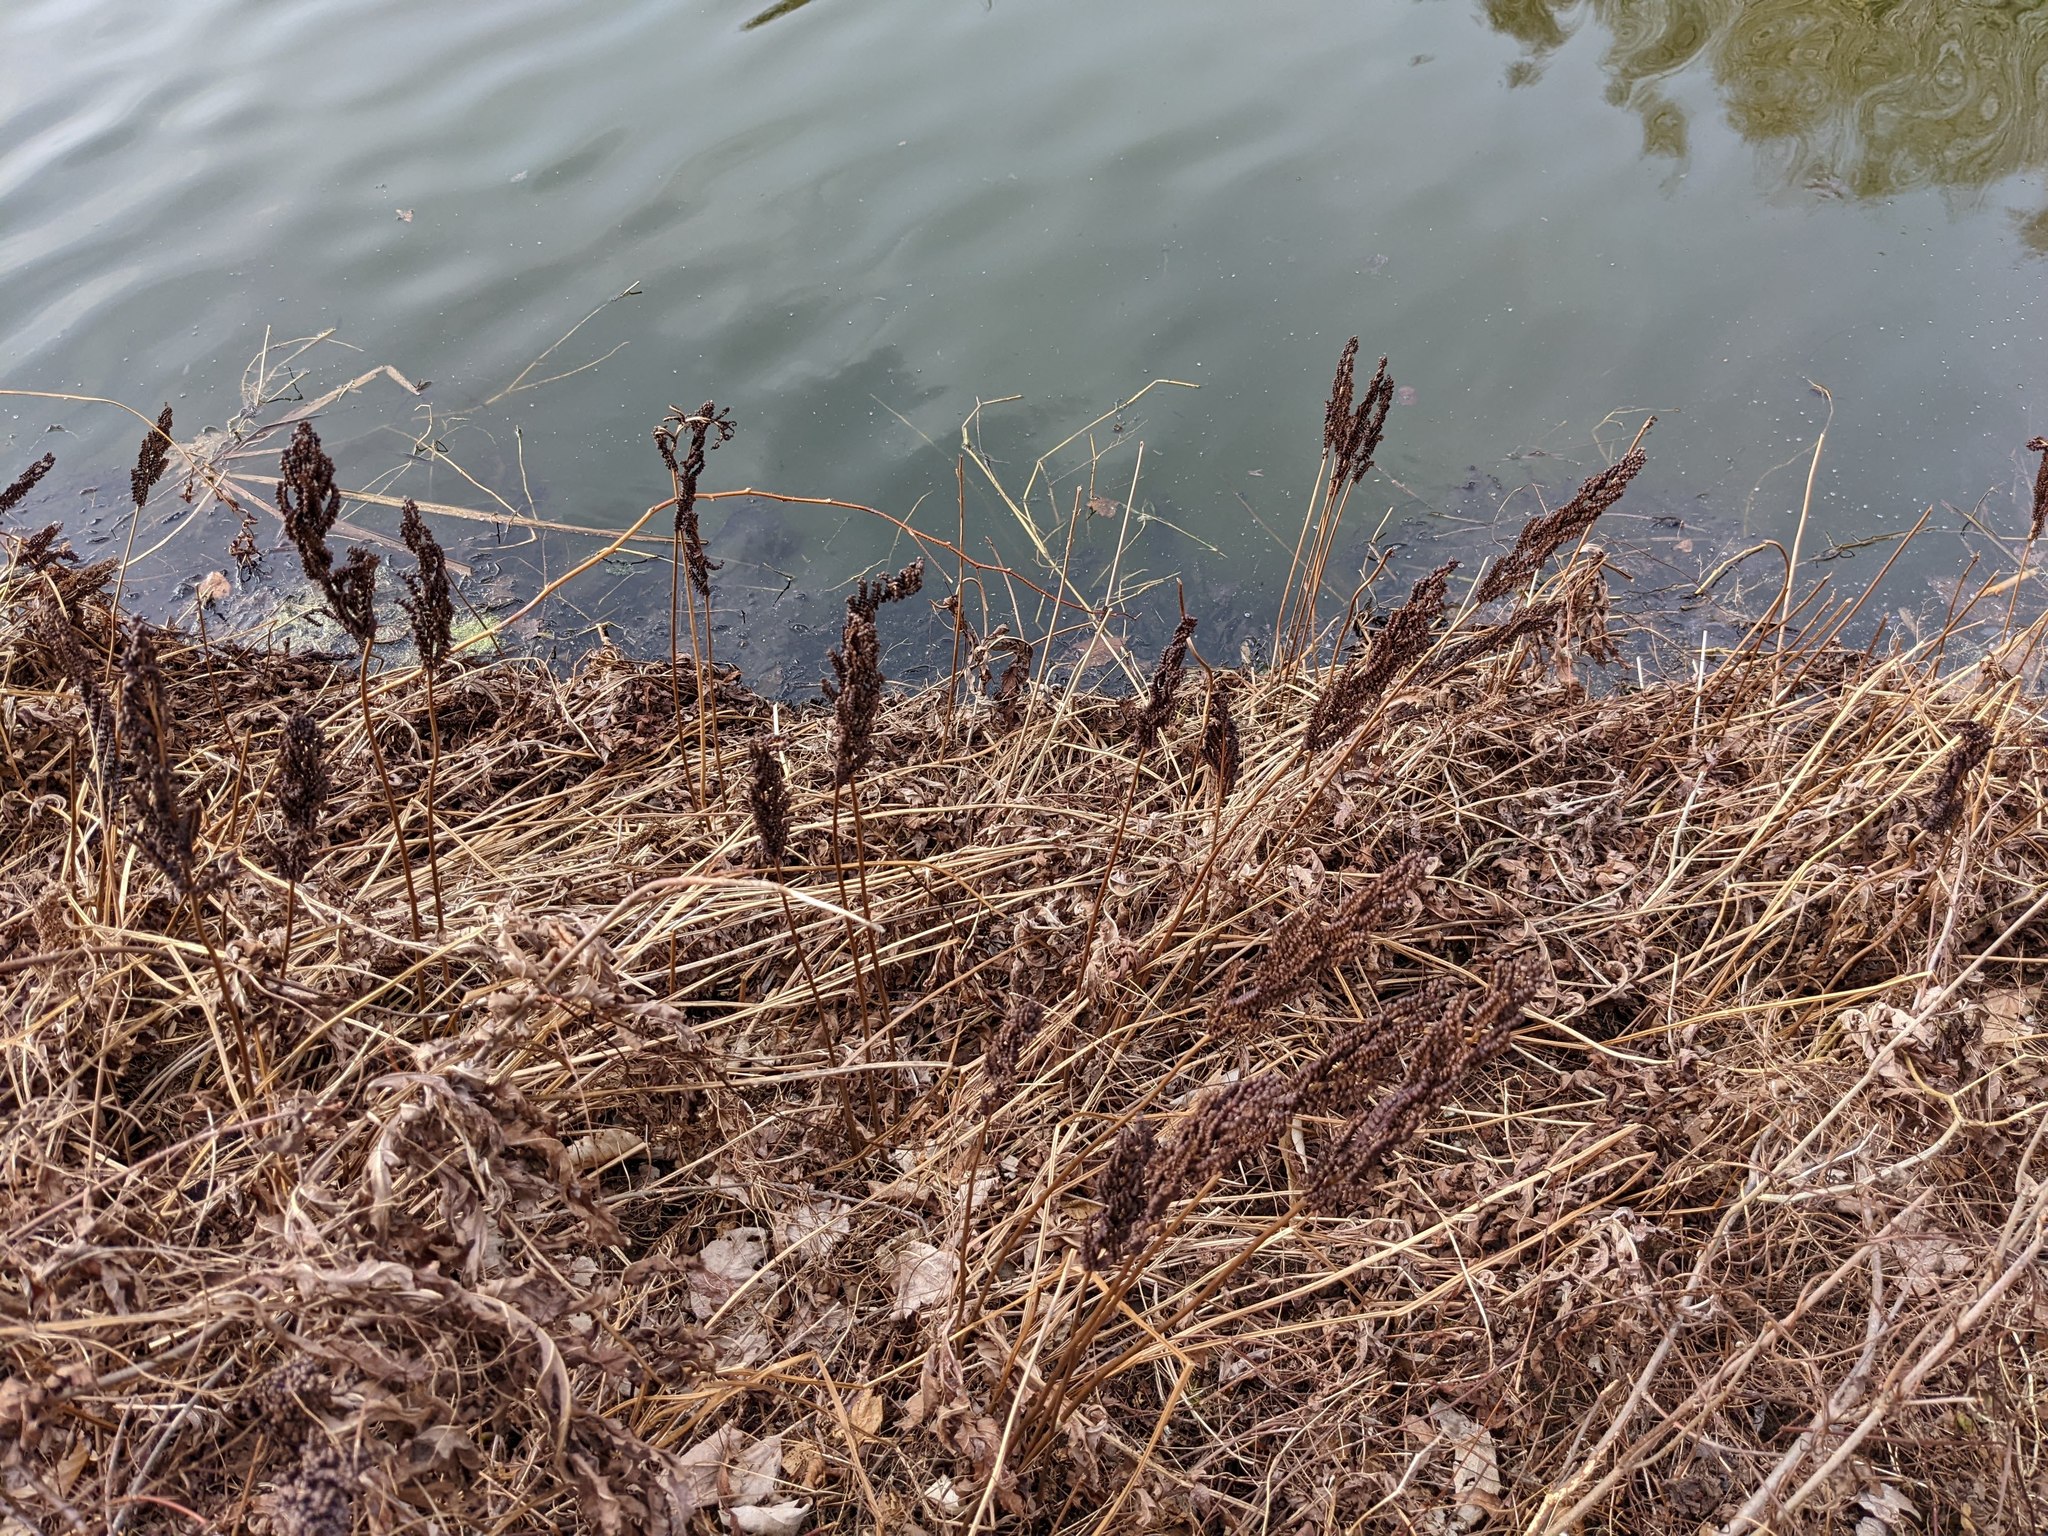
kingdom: Plantae
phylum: Tracheophyta
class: Polypodiopsida
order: Polypodiales
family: Onocleaceae
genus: Onoclea
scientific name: Onoclea sensibilis
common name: Sensitive fern
